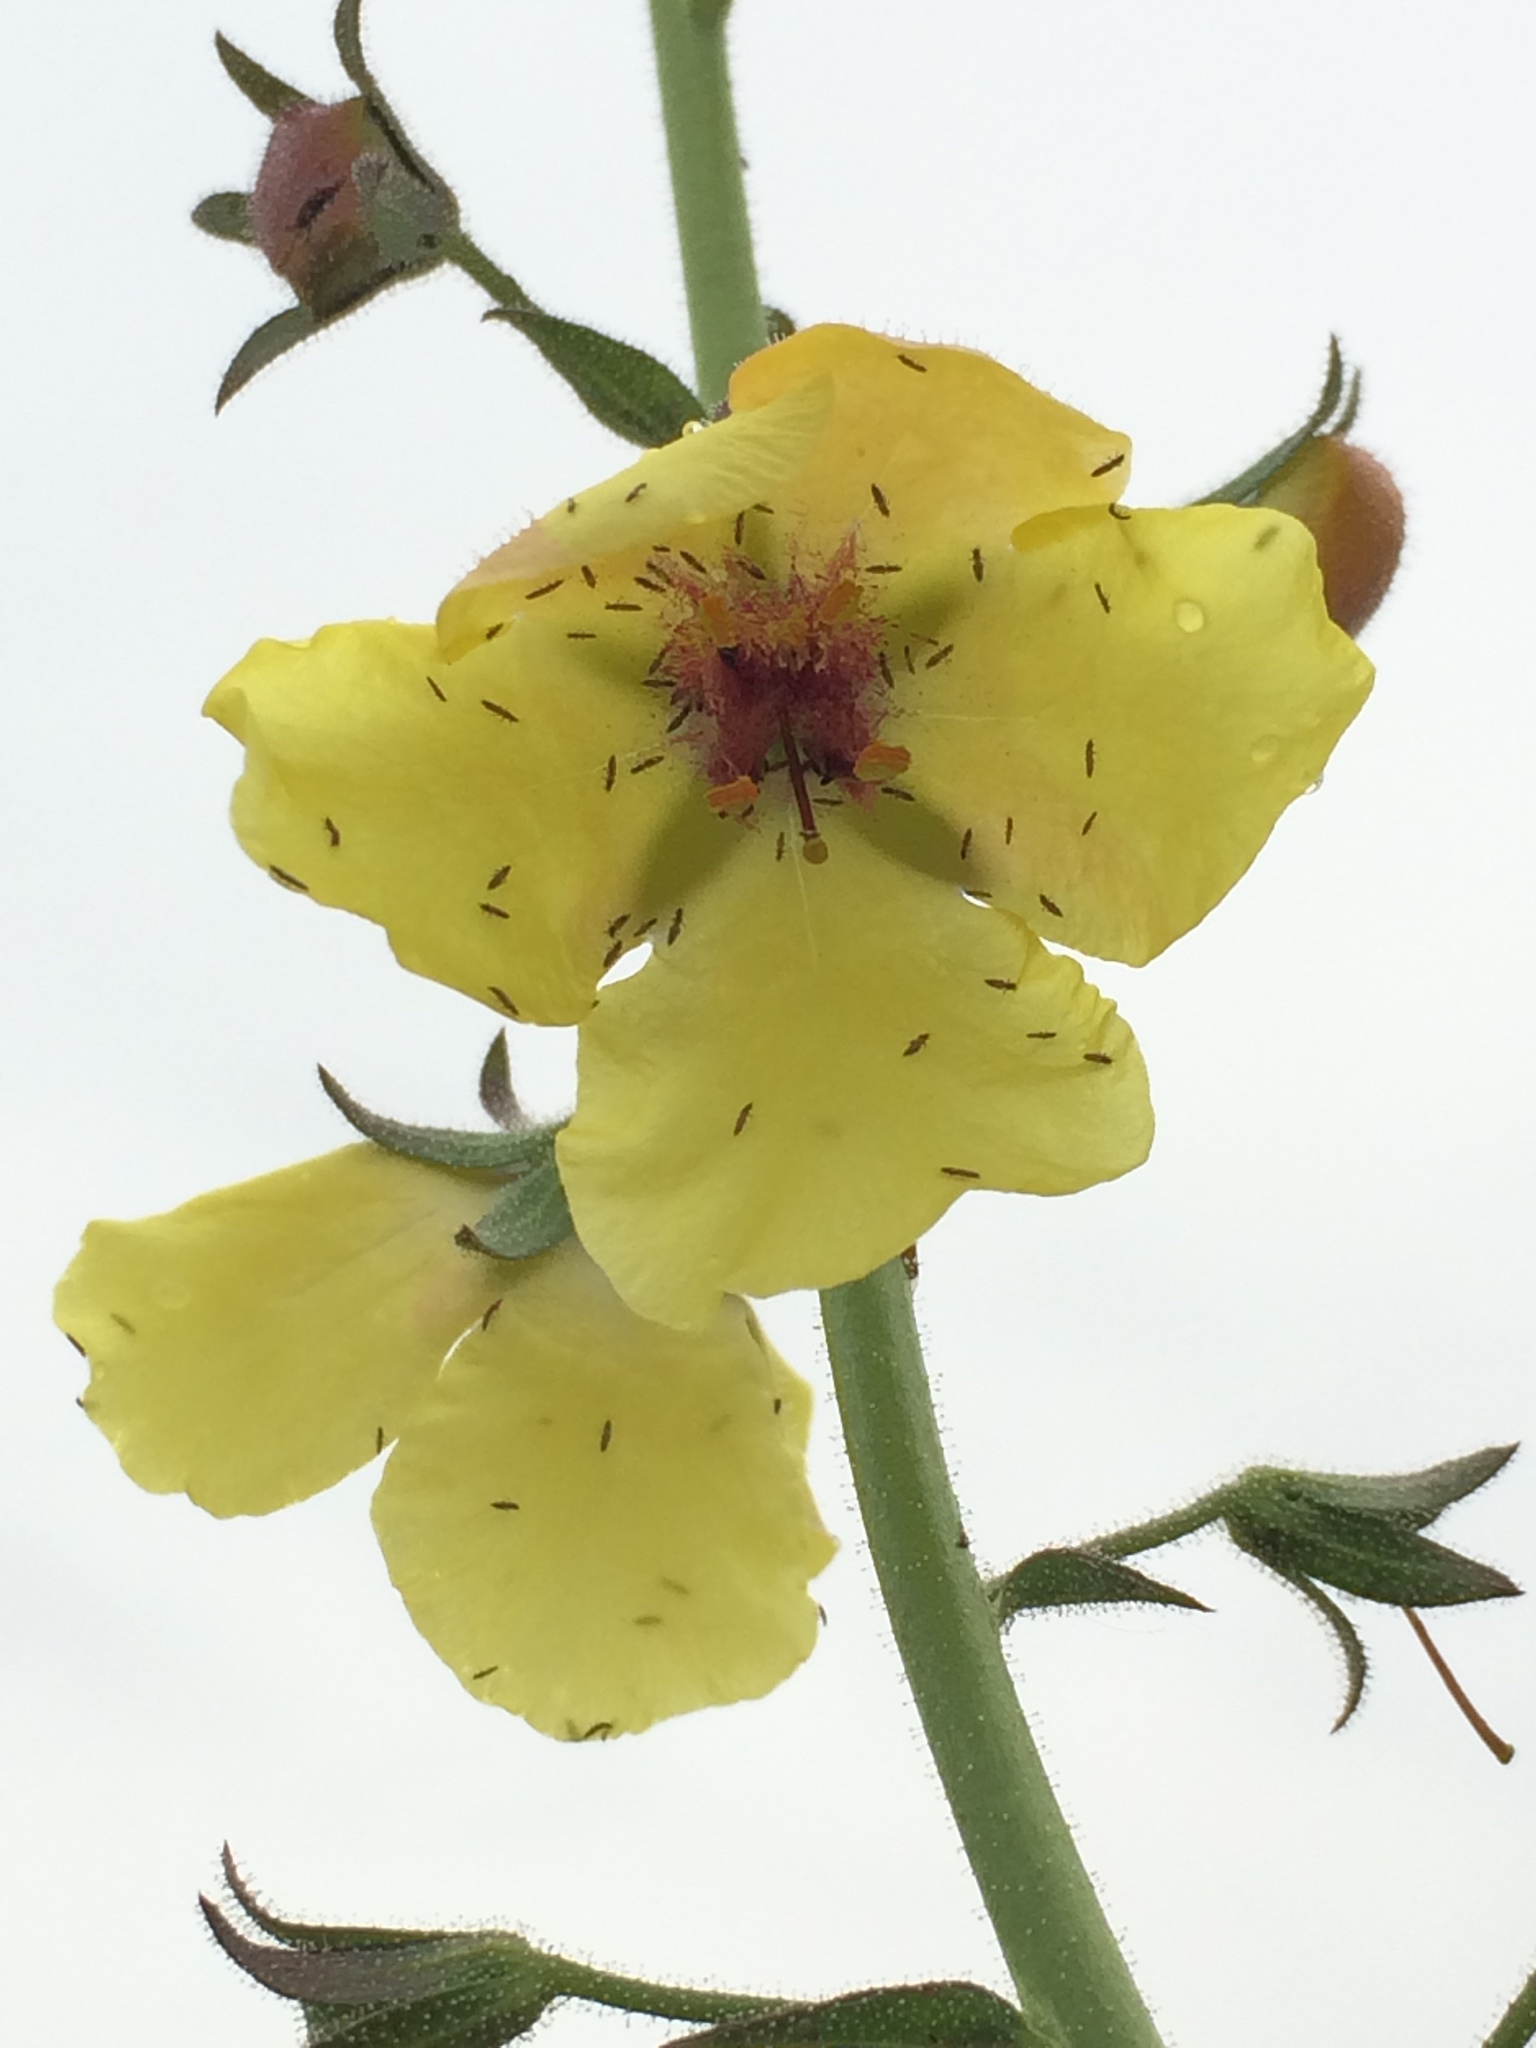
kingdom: Plantae
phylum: Tracheophyta
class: Magnoliopsida
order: Lamiales
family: Scrophulariaceae
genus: Verbascum
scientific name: Verbascum blattaria
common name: Moth mullein
